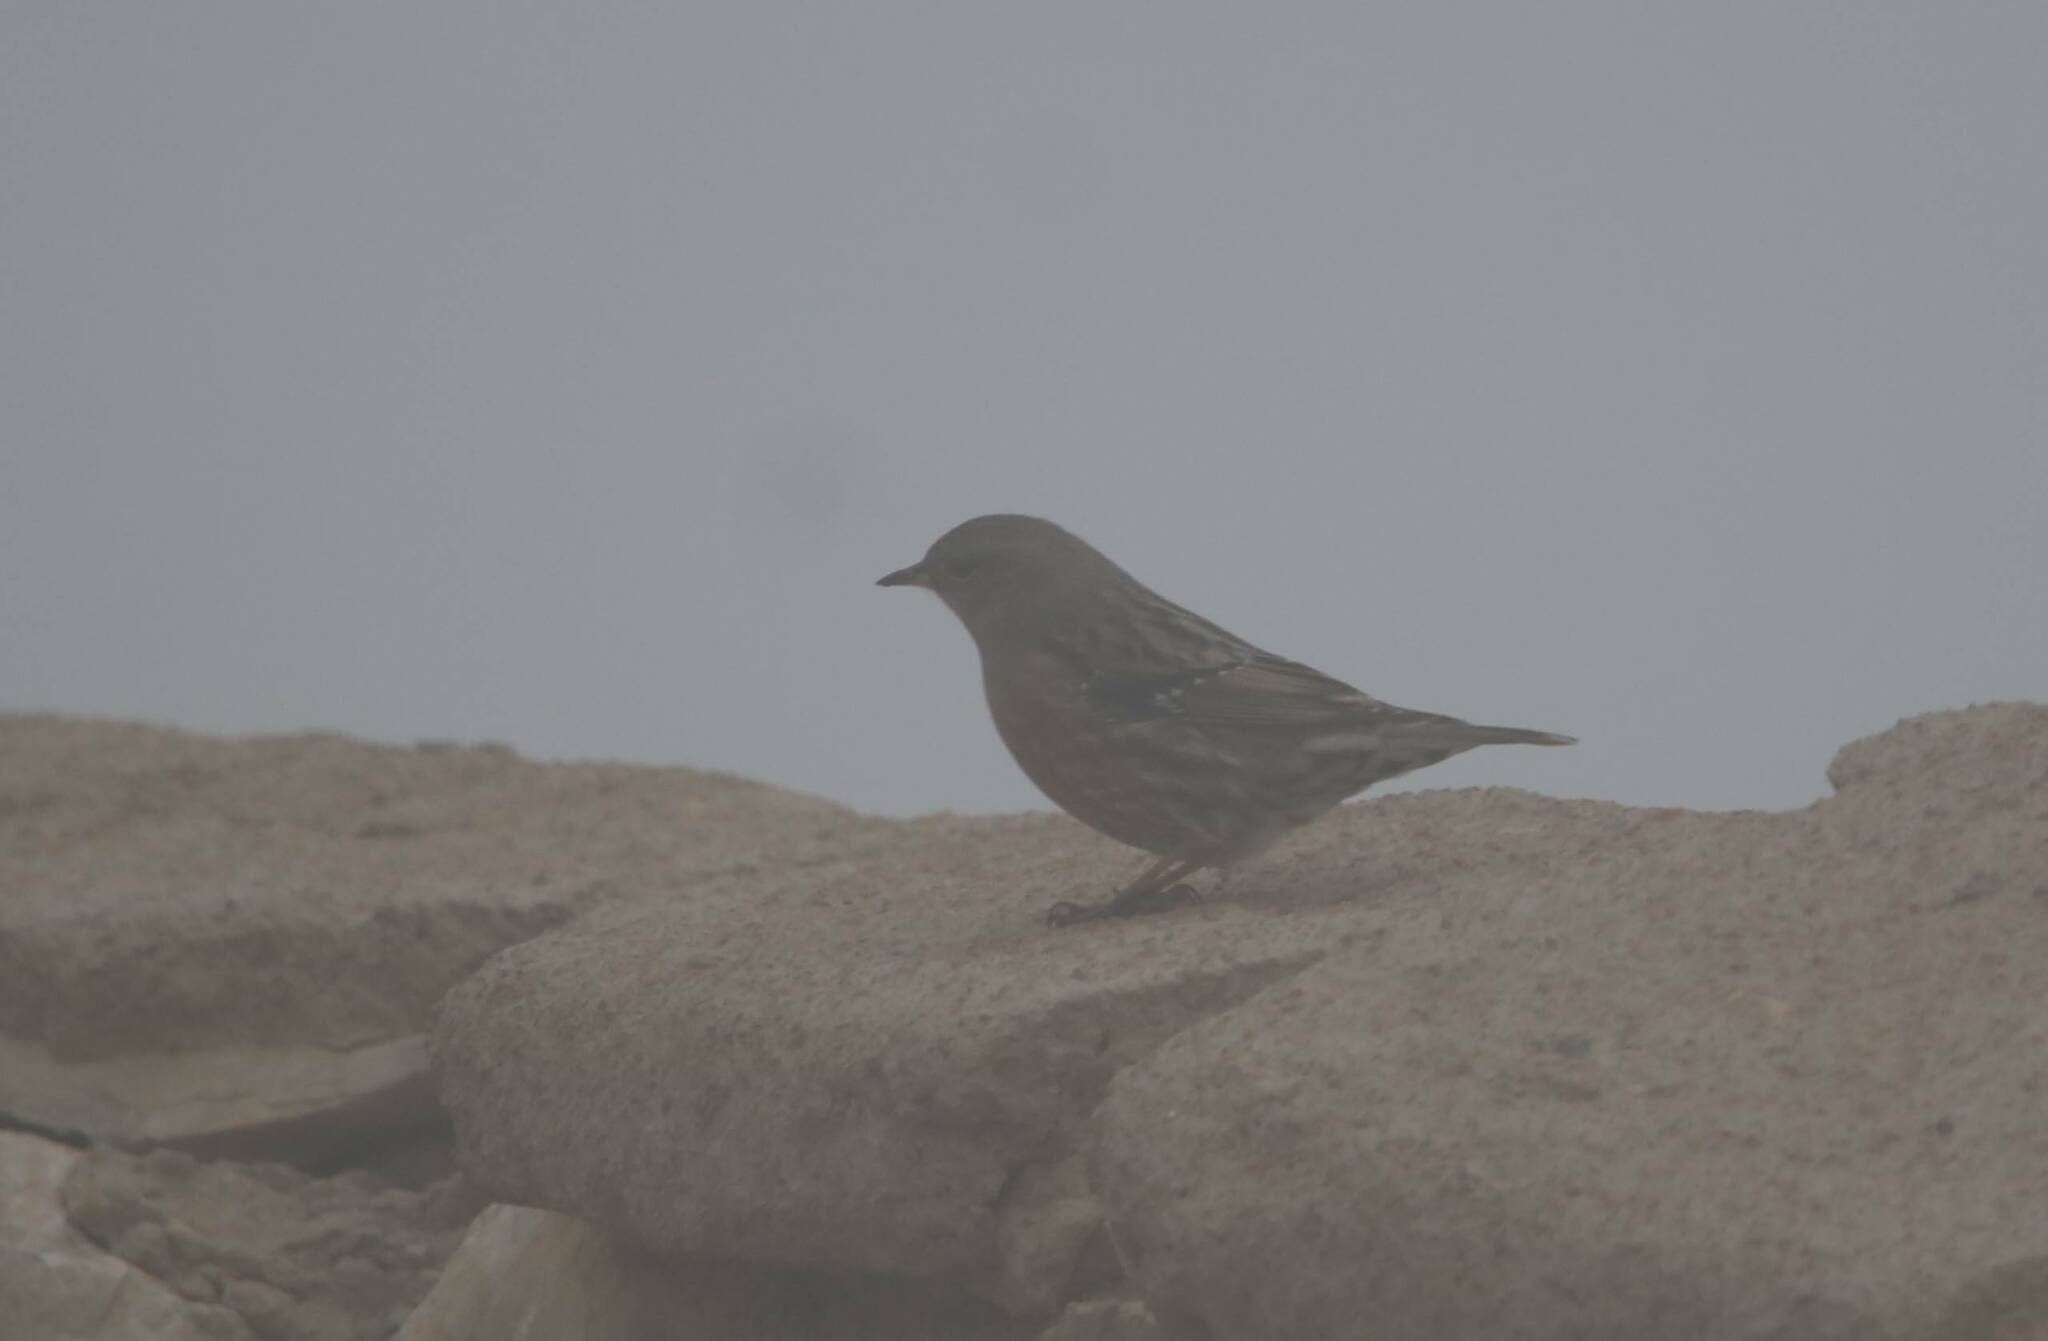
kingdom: Animalia
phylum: Chordata
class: Aves
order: Passeriformes
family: Prunellidae
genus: Prunella
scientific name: Prunella collaris
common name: Alpine accentor
